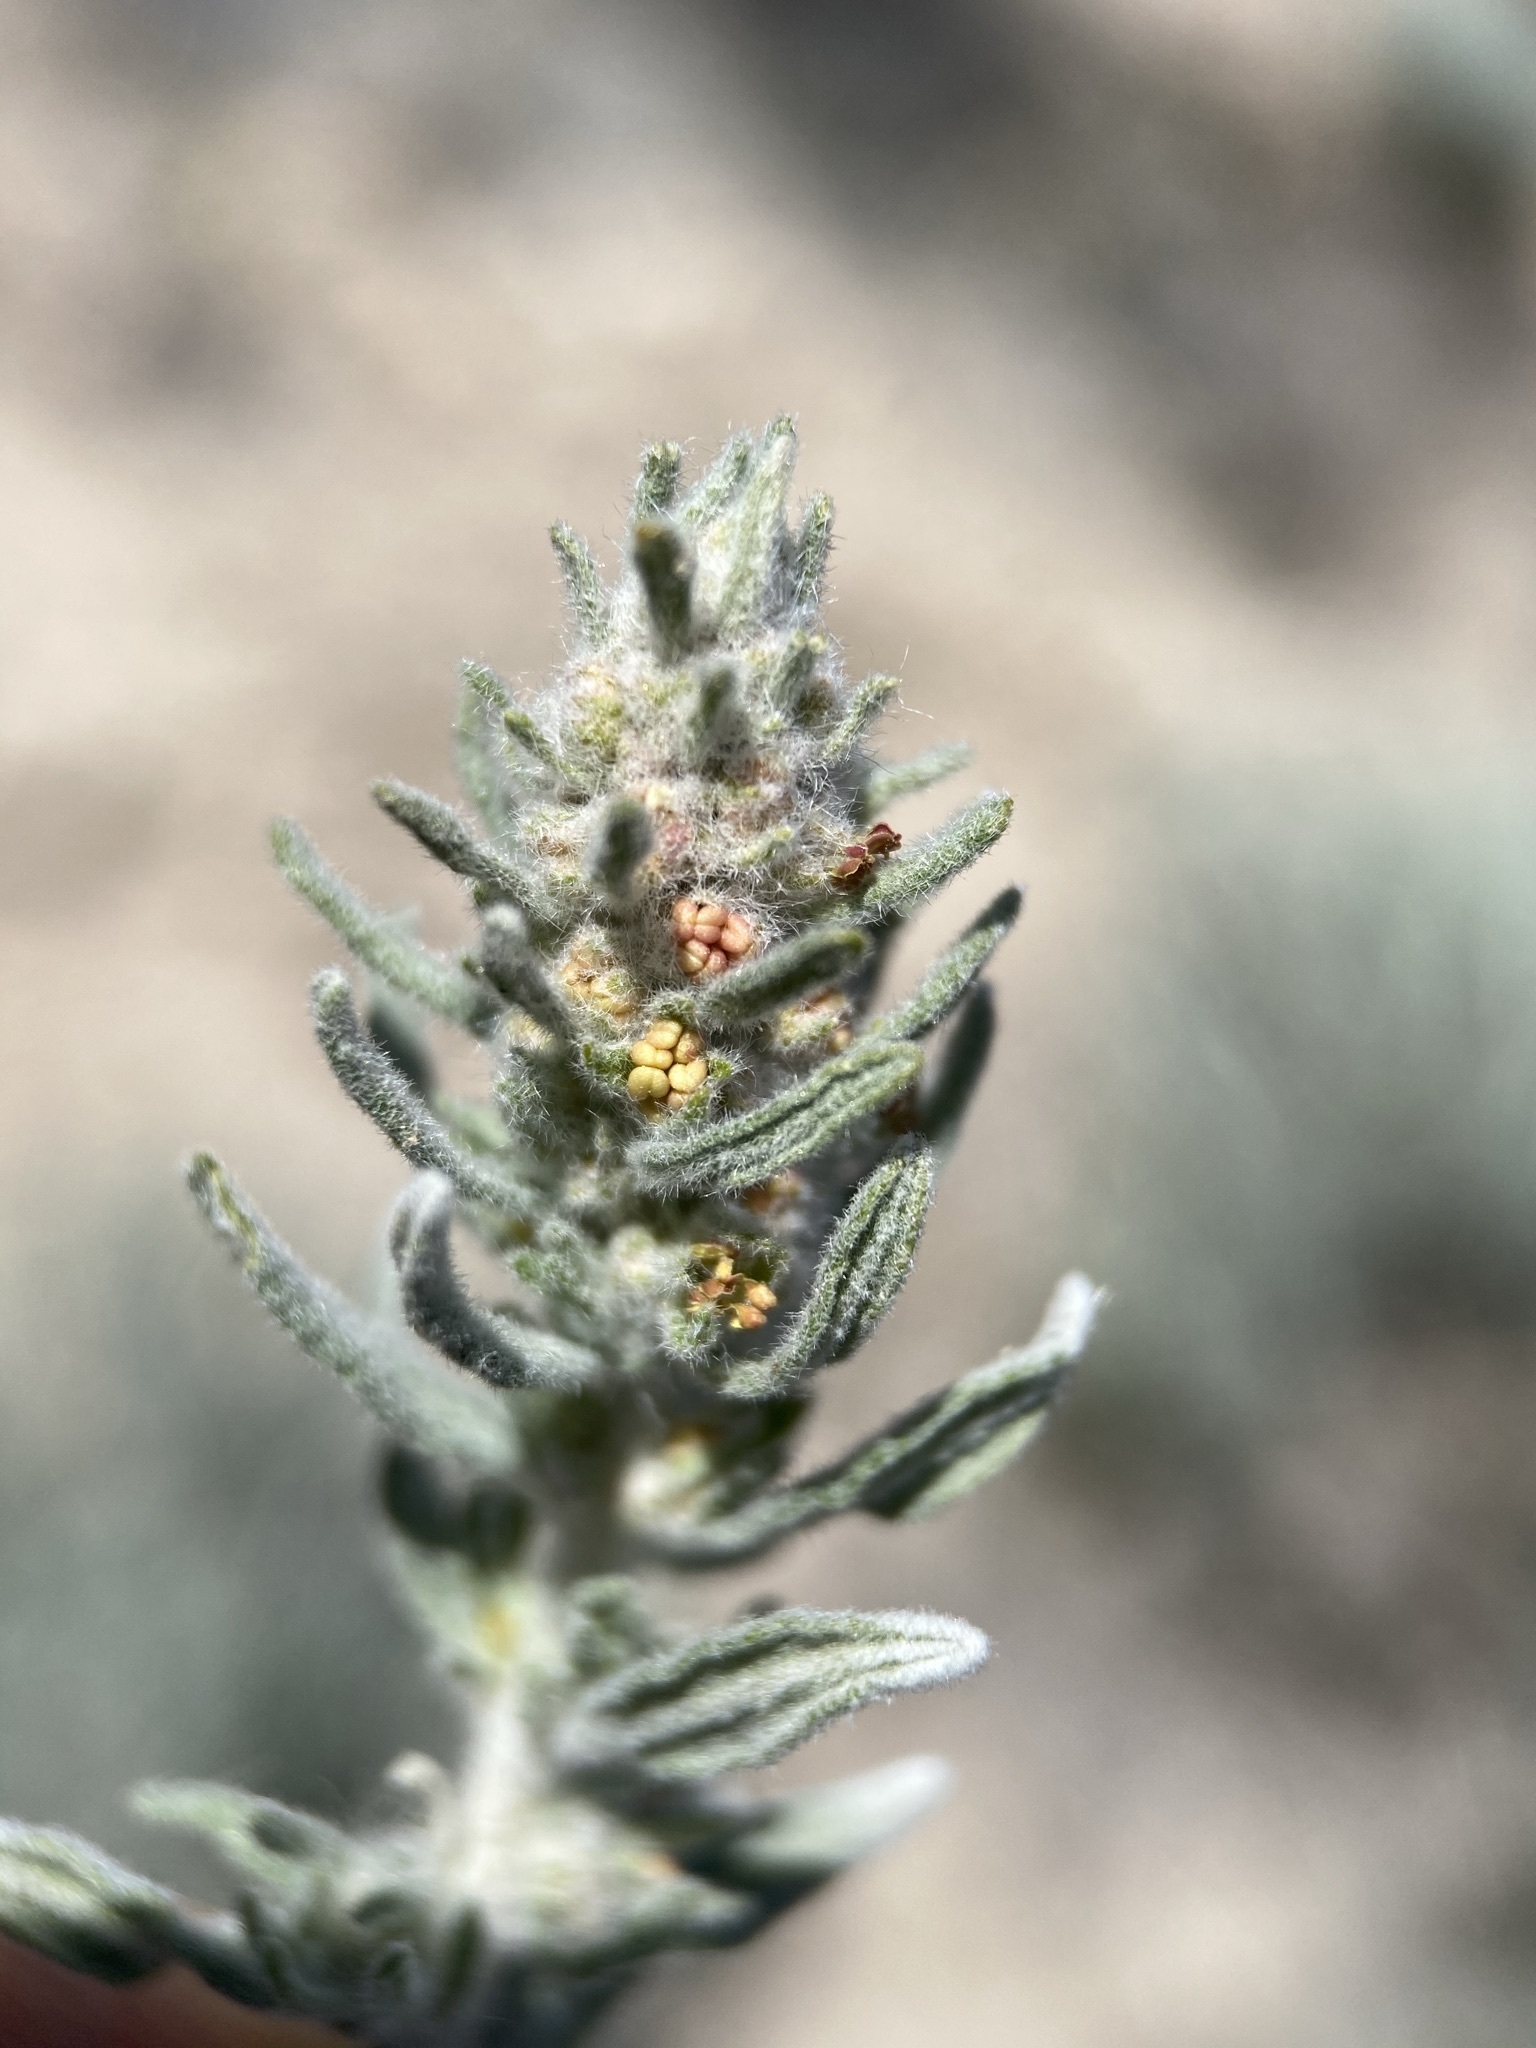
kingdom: Plantae
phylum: Tracheophyta
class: Magnoliopsida
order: Caryophyllales
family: Amaranthaceae
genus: Krascheninnikovia
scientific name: Krascheninnikovia lanata
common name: Winterfat
